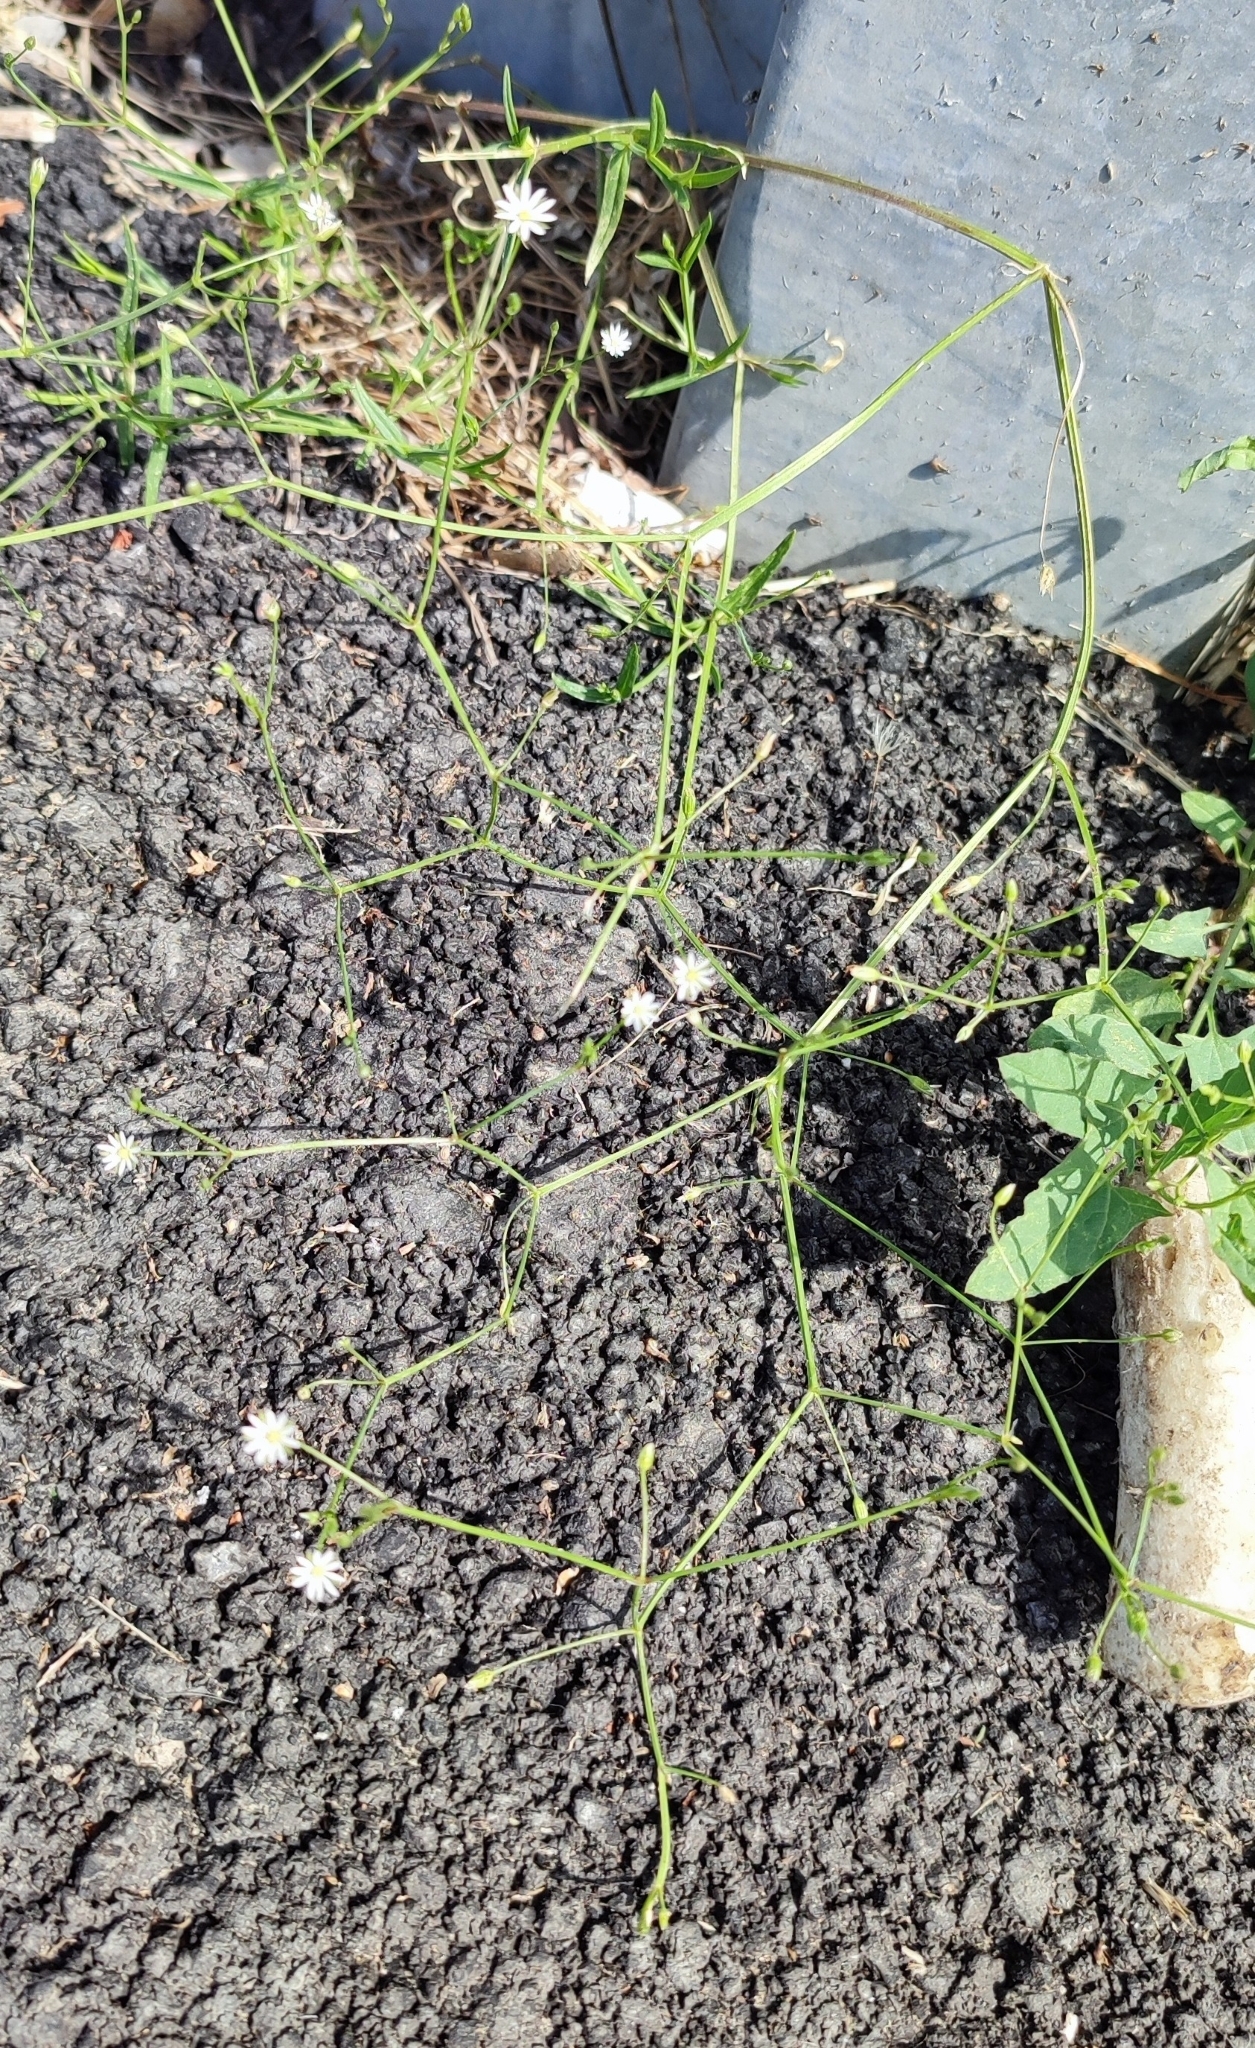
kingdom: Plantae
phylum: Tracheophyta
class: Magnoliopsida
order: Caryophyllales
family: Caryophyllaceae
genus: Stellaria
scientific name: Stellaria graminea
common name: Grass-like starwort
